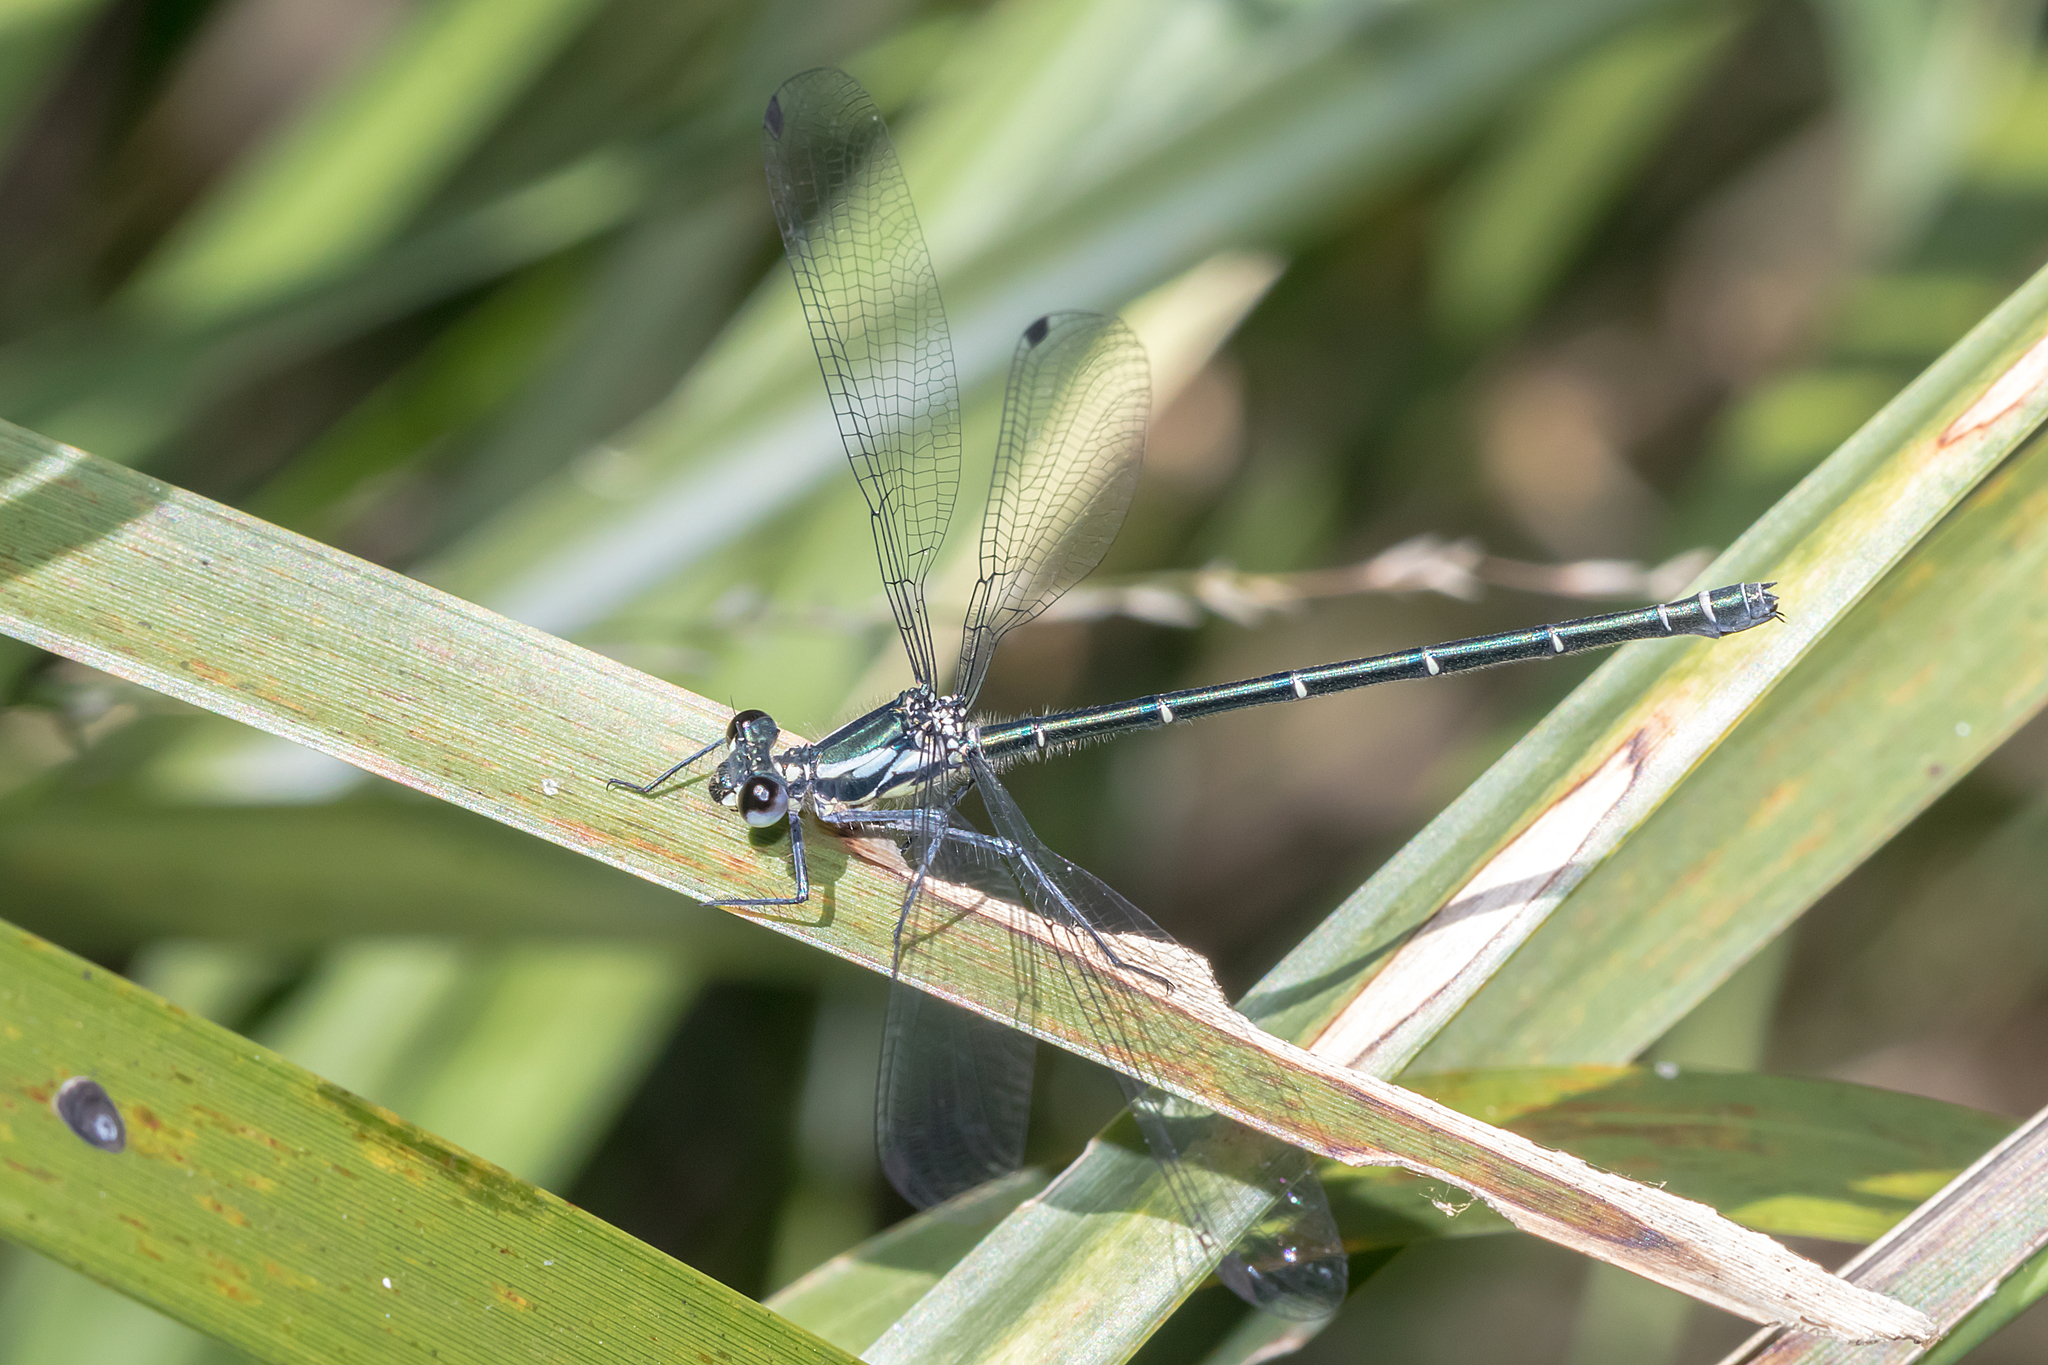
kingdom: Animalia
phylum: Arthropoda
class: Insecta
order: Odonata
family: Argiolestidae
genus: Austroargiolestes
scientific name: Austroargiolestes icteromelas
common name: Common flatwing
